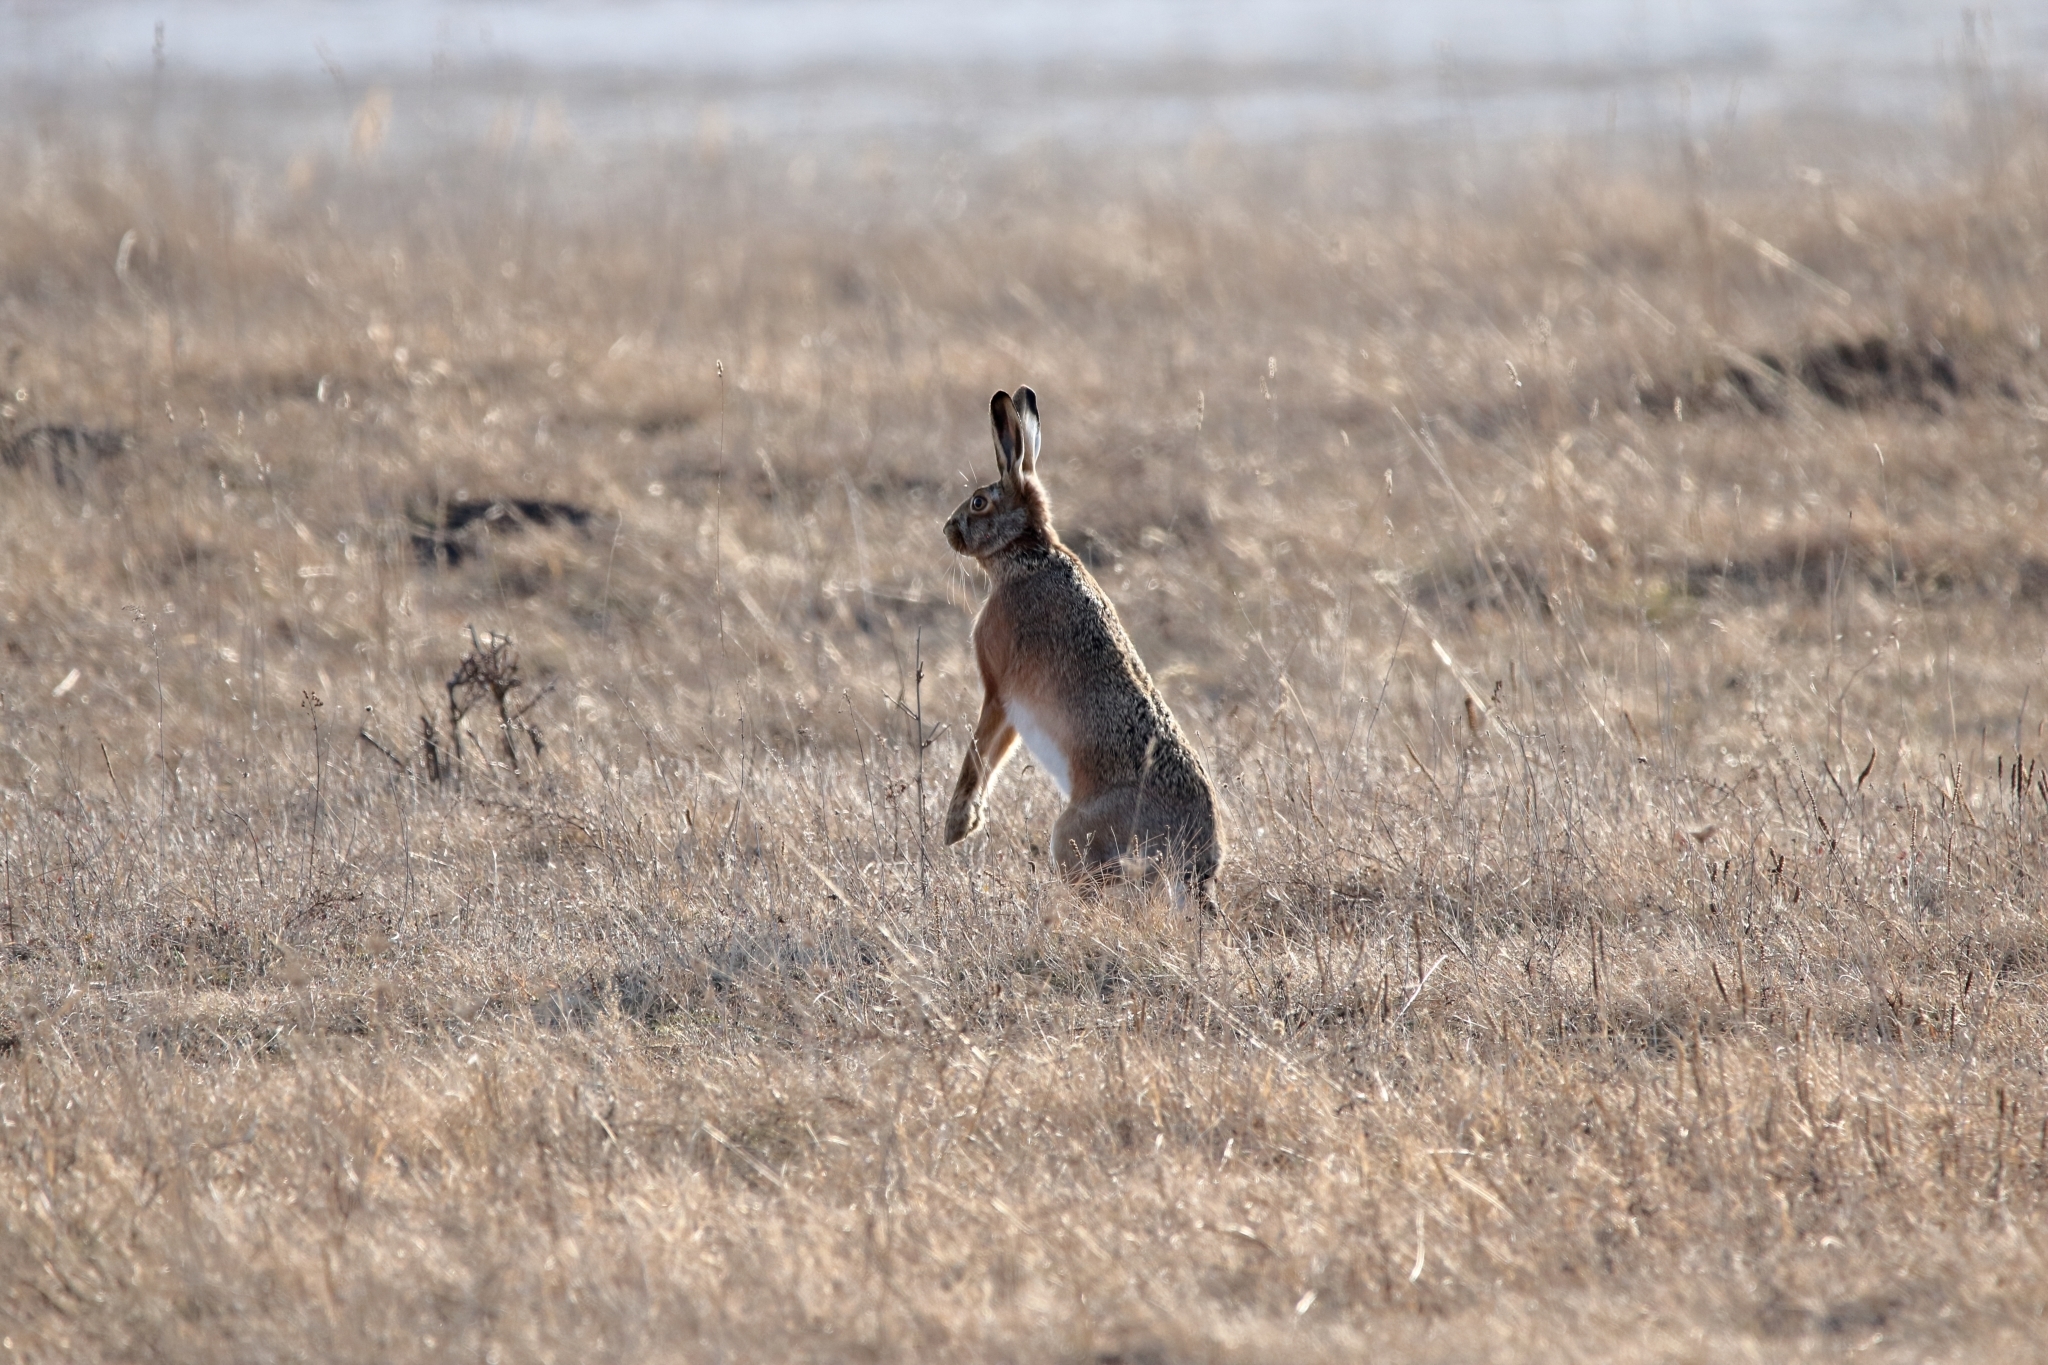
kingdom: Animalia
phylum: Chordata
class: Mammalia
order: Lagomorpha
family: Leporidae
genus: Lepus
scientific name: Lepus europaeus
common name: European hare
